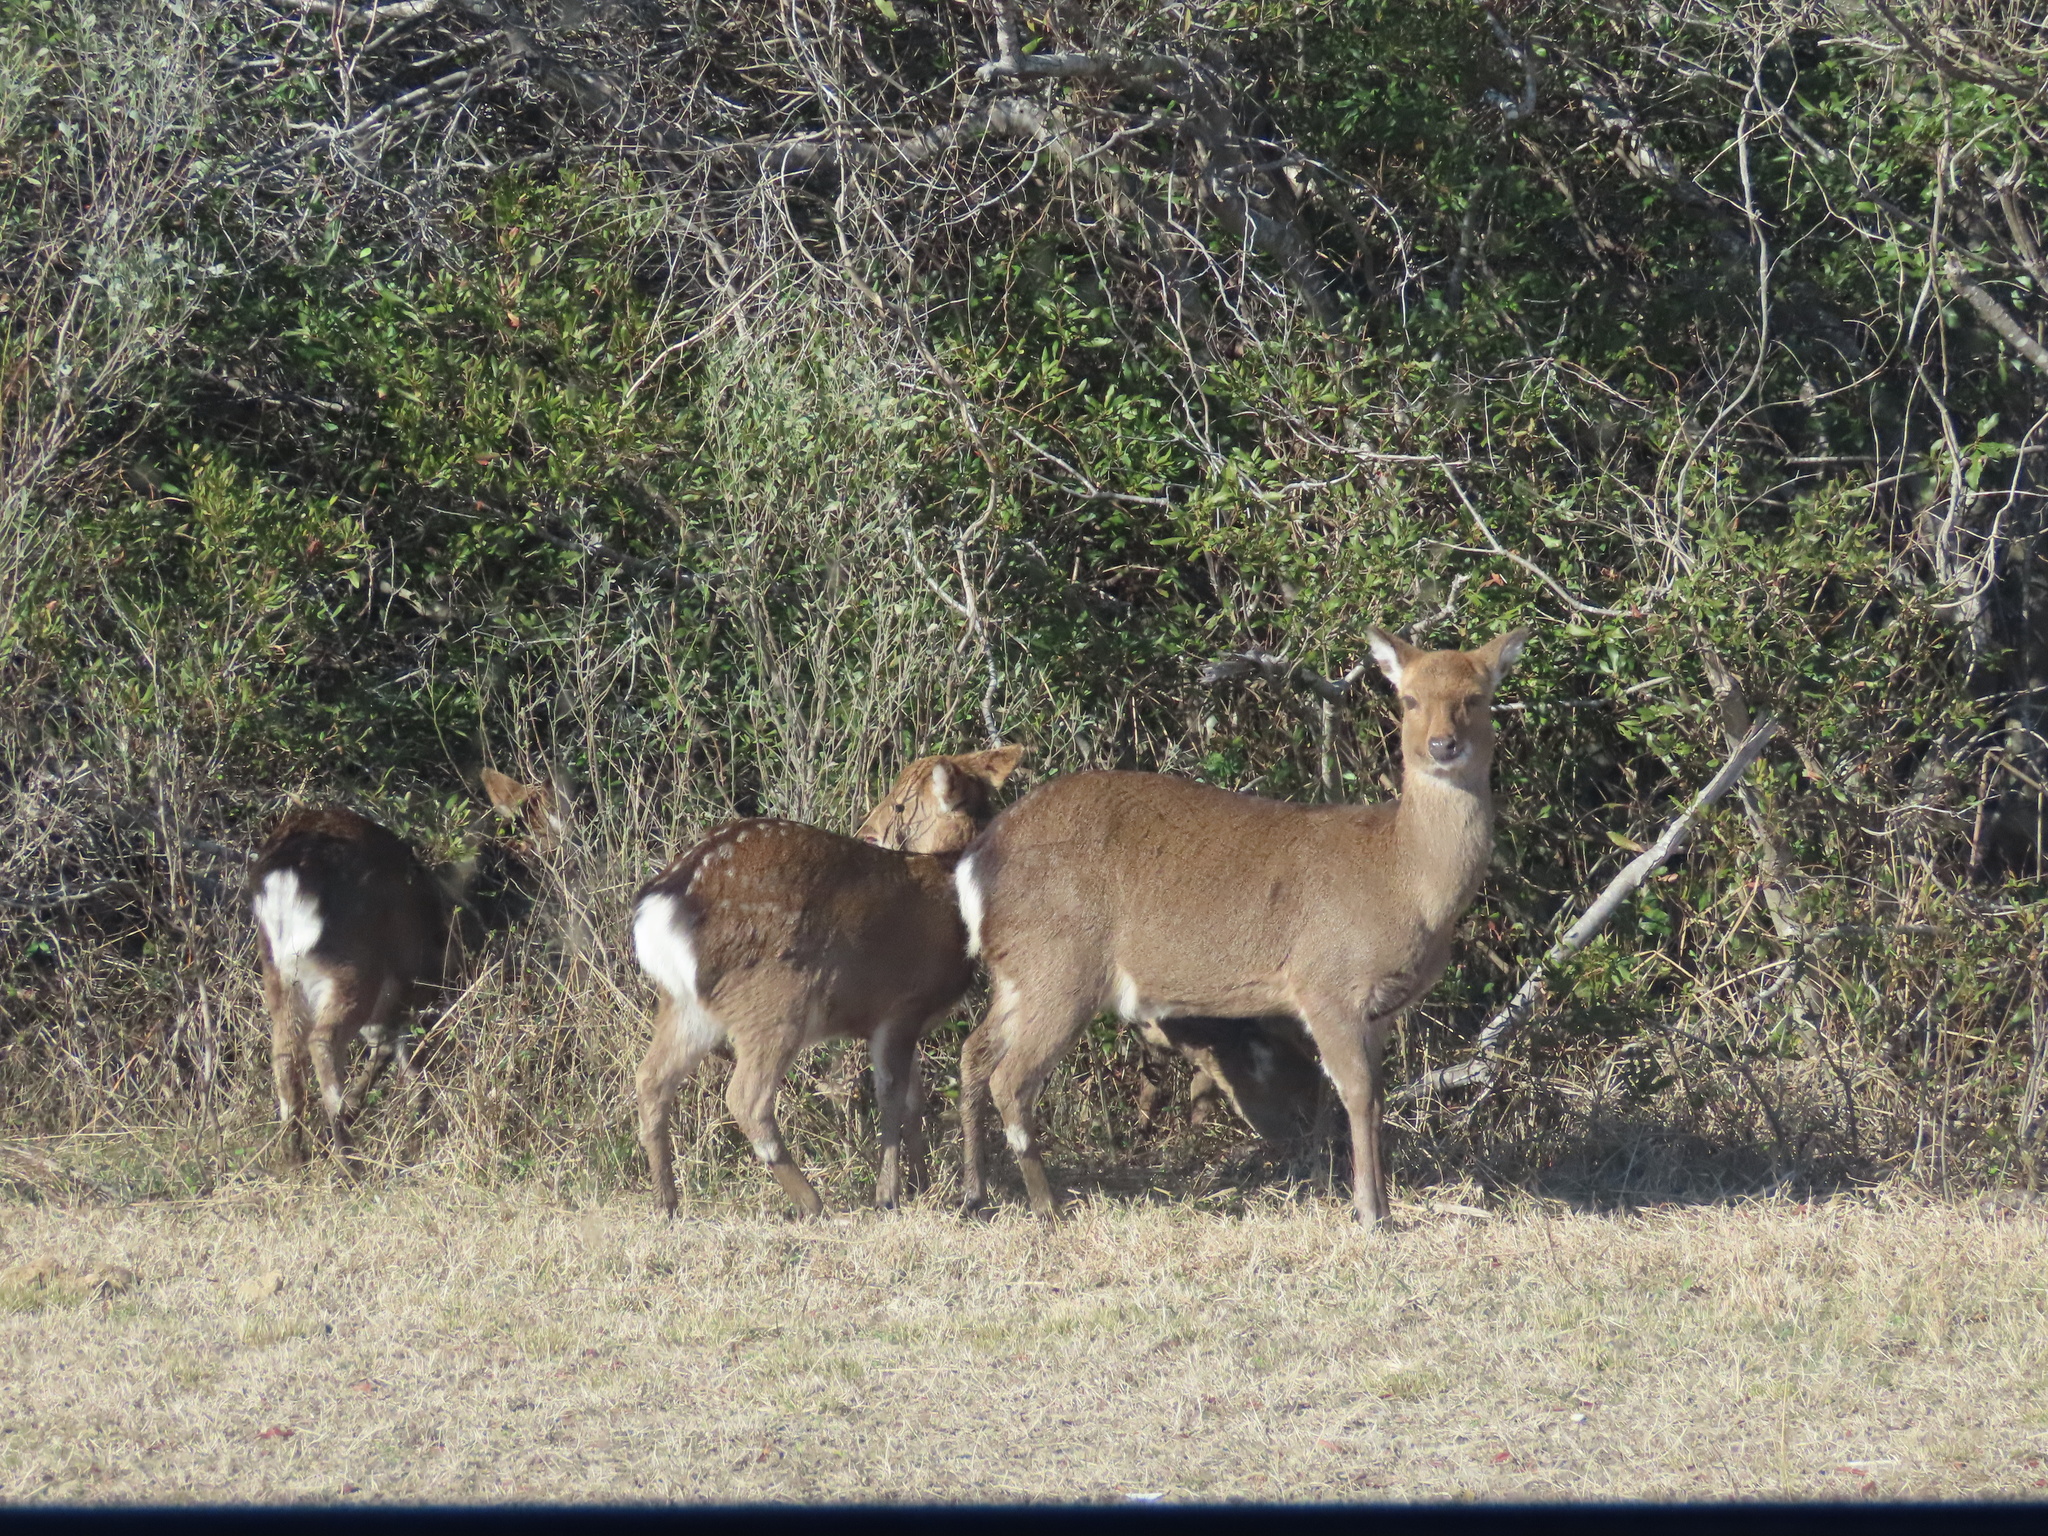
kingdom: Animalia
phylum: Chordata
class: Mammalia
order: Artiodactyla
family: Cervidae
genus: Cervus
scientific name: Cervus nippon
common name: Sika deer
